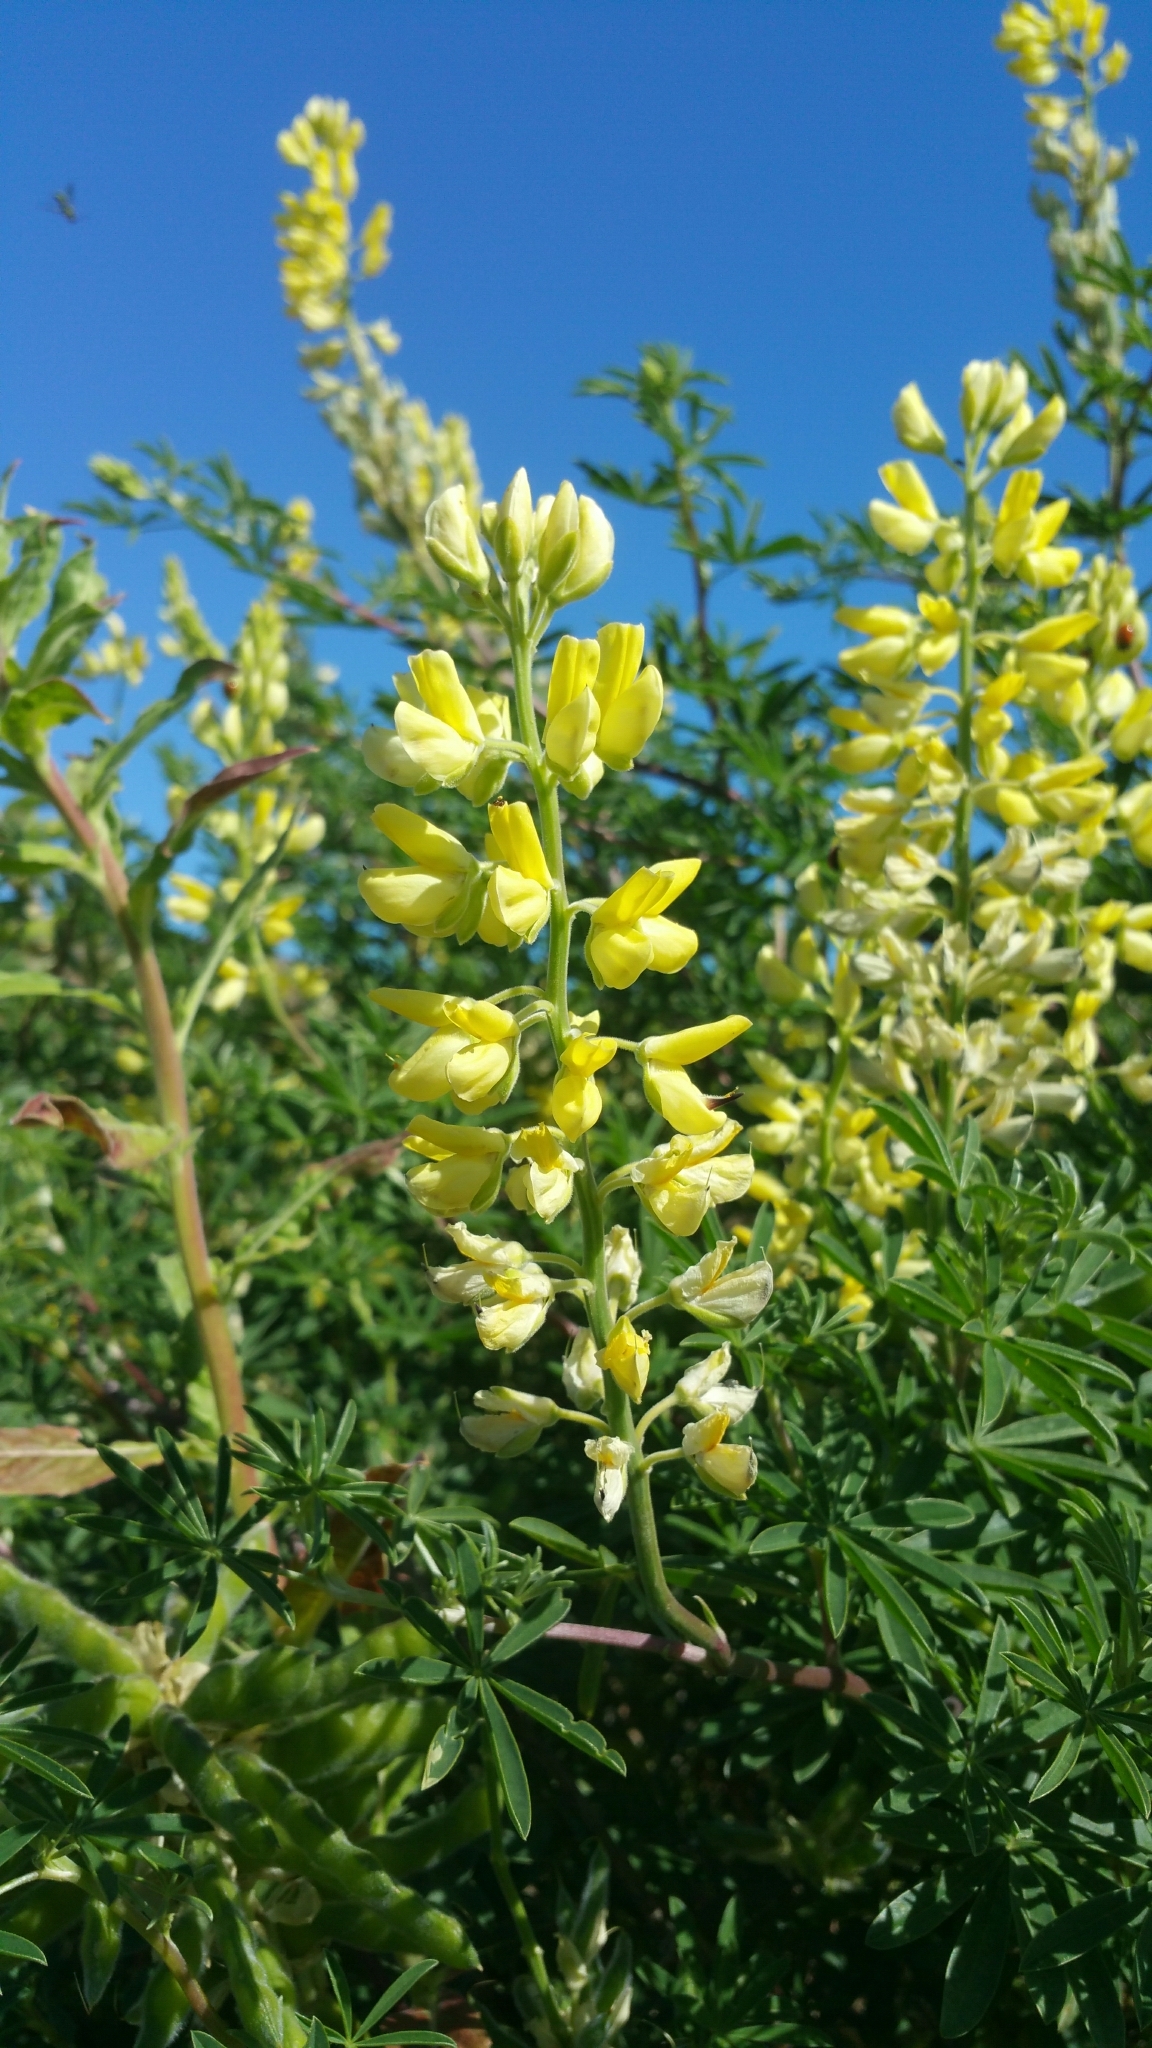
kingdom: Plantae
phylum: Tracheophyta
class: Magnoliopsida
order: Fabales
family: Fabaceae
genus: Lupinus
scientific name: Lupinus arboreus
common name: Yellow bush lupine
